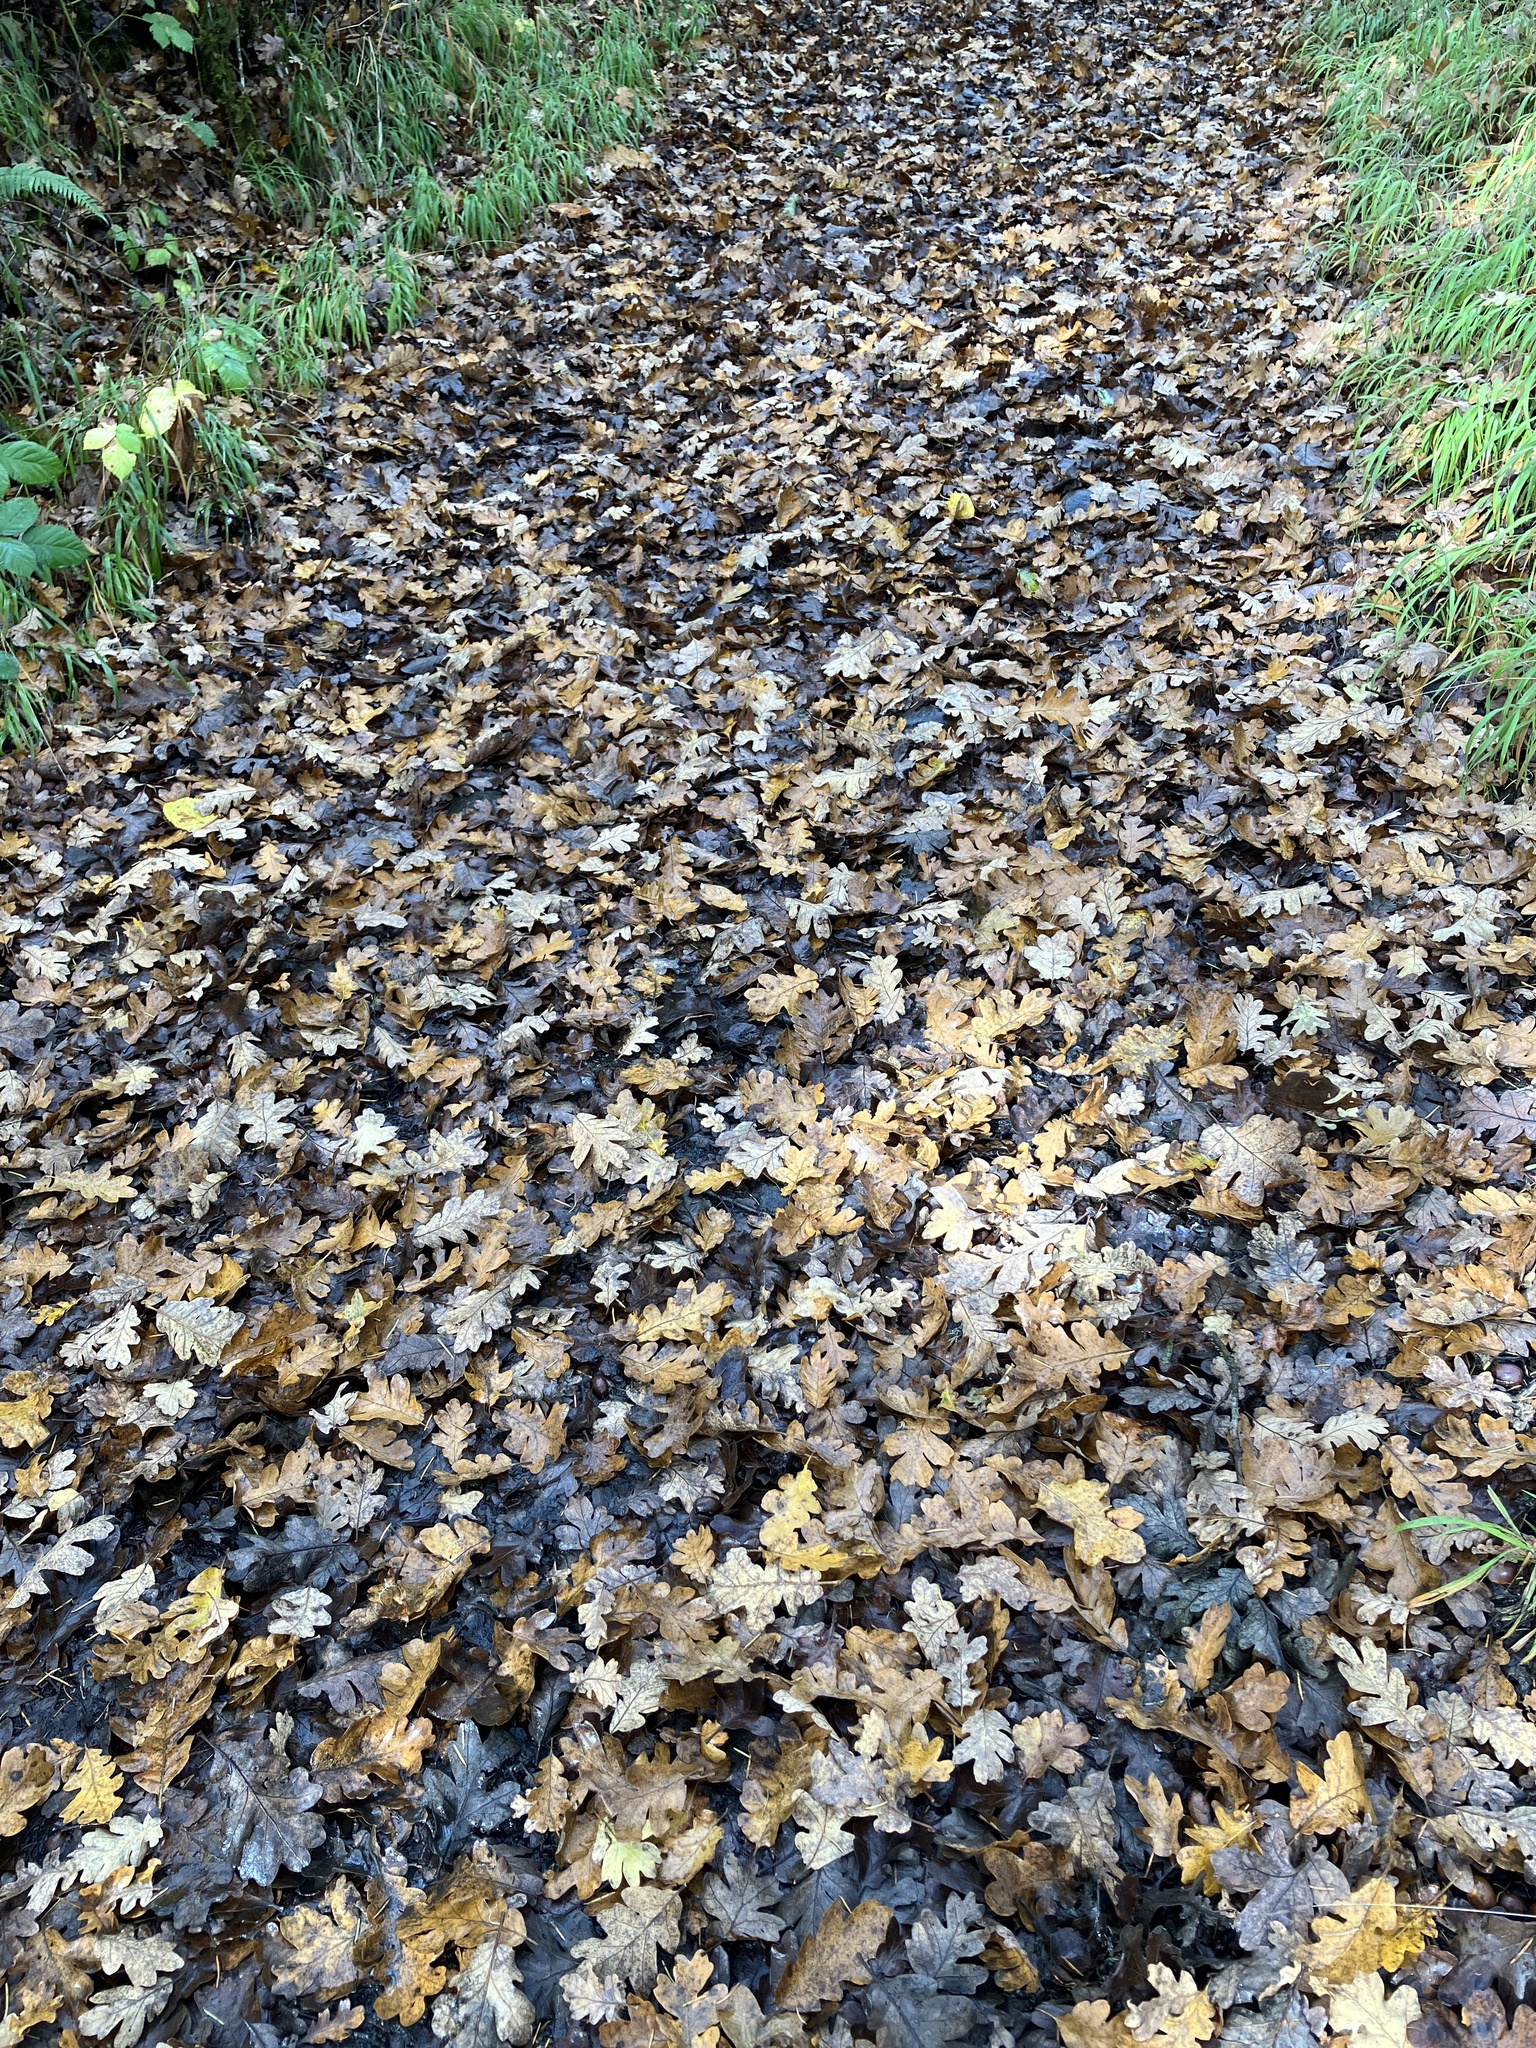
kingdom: Plantae
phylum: Tracheophyta
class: Magnoliopsida
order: Fagales
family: Fagaceae
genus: Quercus
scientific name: Quercus garryana
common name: Garry oak
